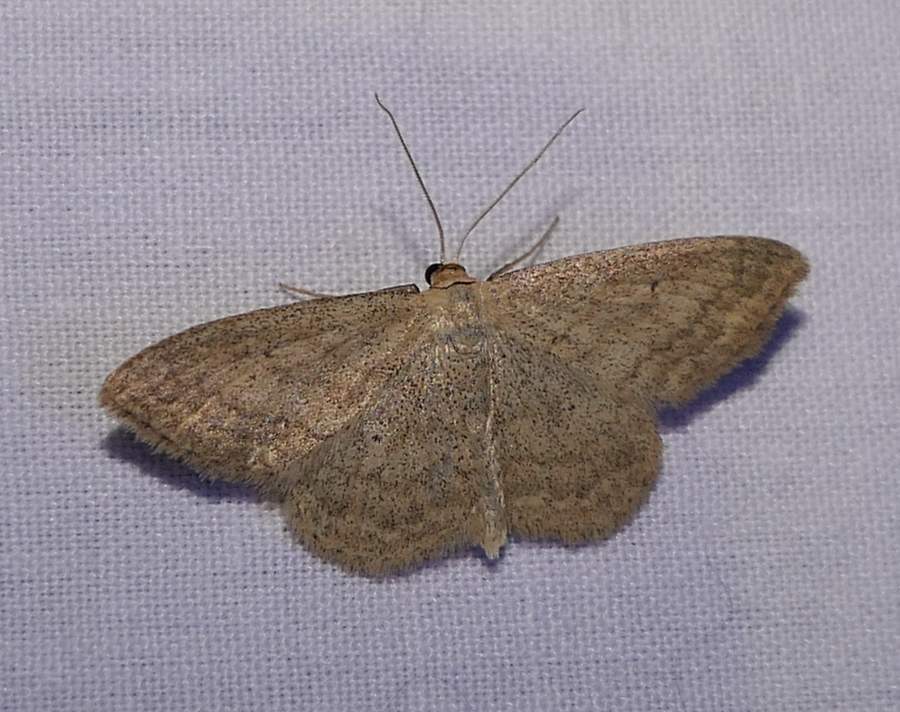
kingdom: Animalia
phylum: Arthropoda
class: Insecta
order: Lepidoptera
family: Geometridae
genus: Scopula
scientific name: Scopula inductata
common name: Soft-lined wave
